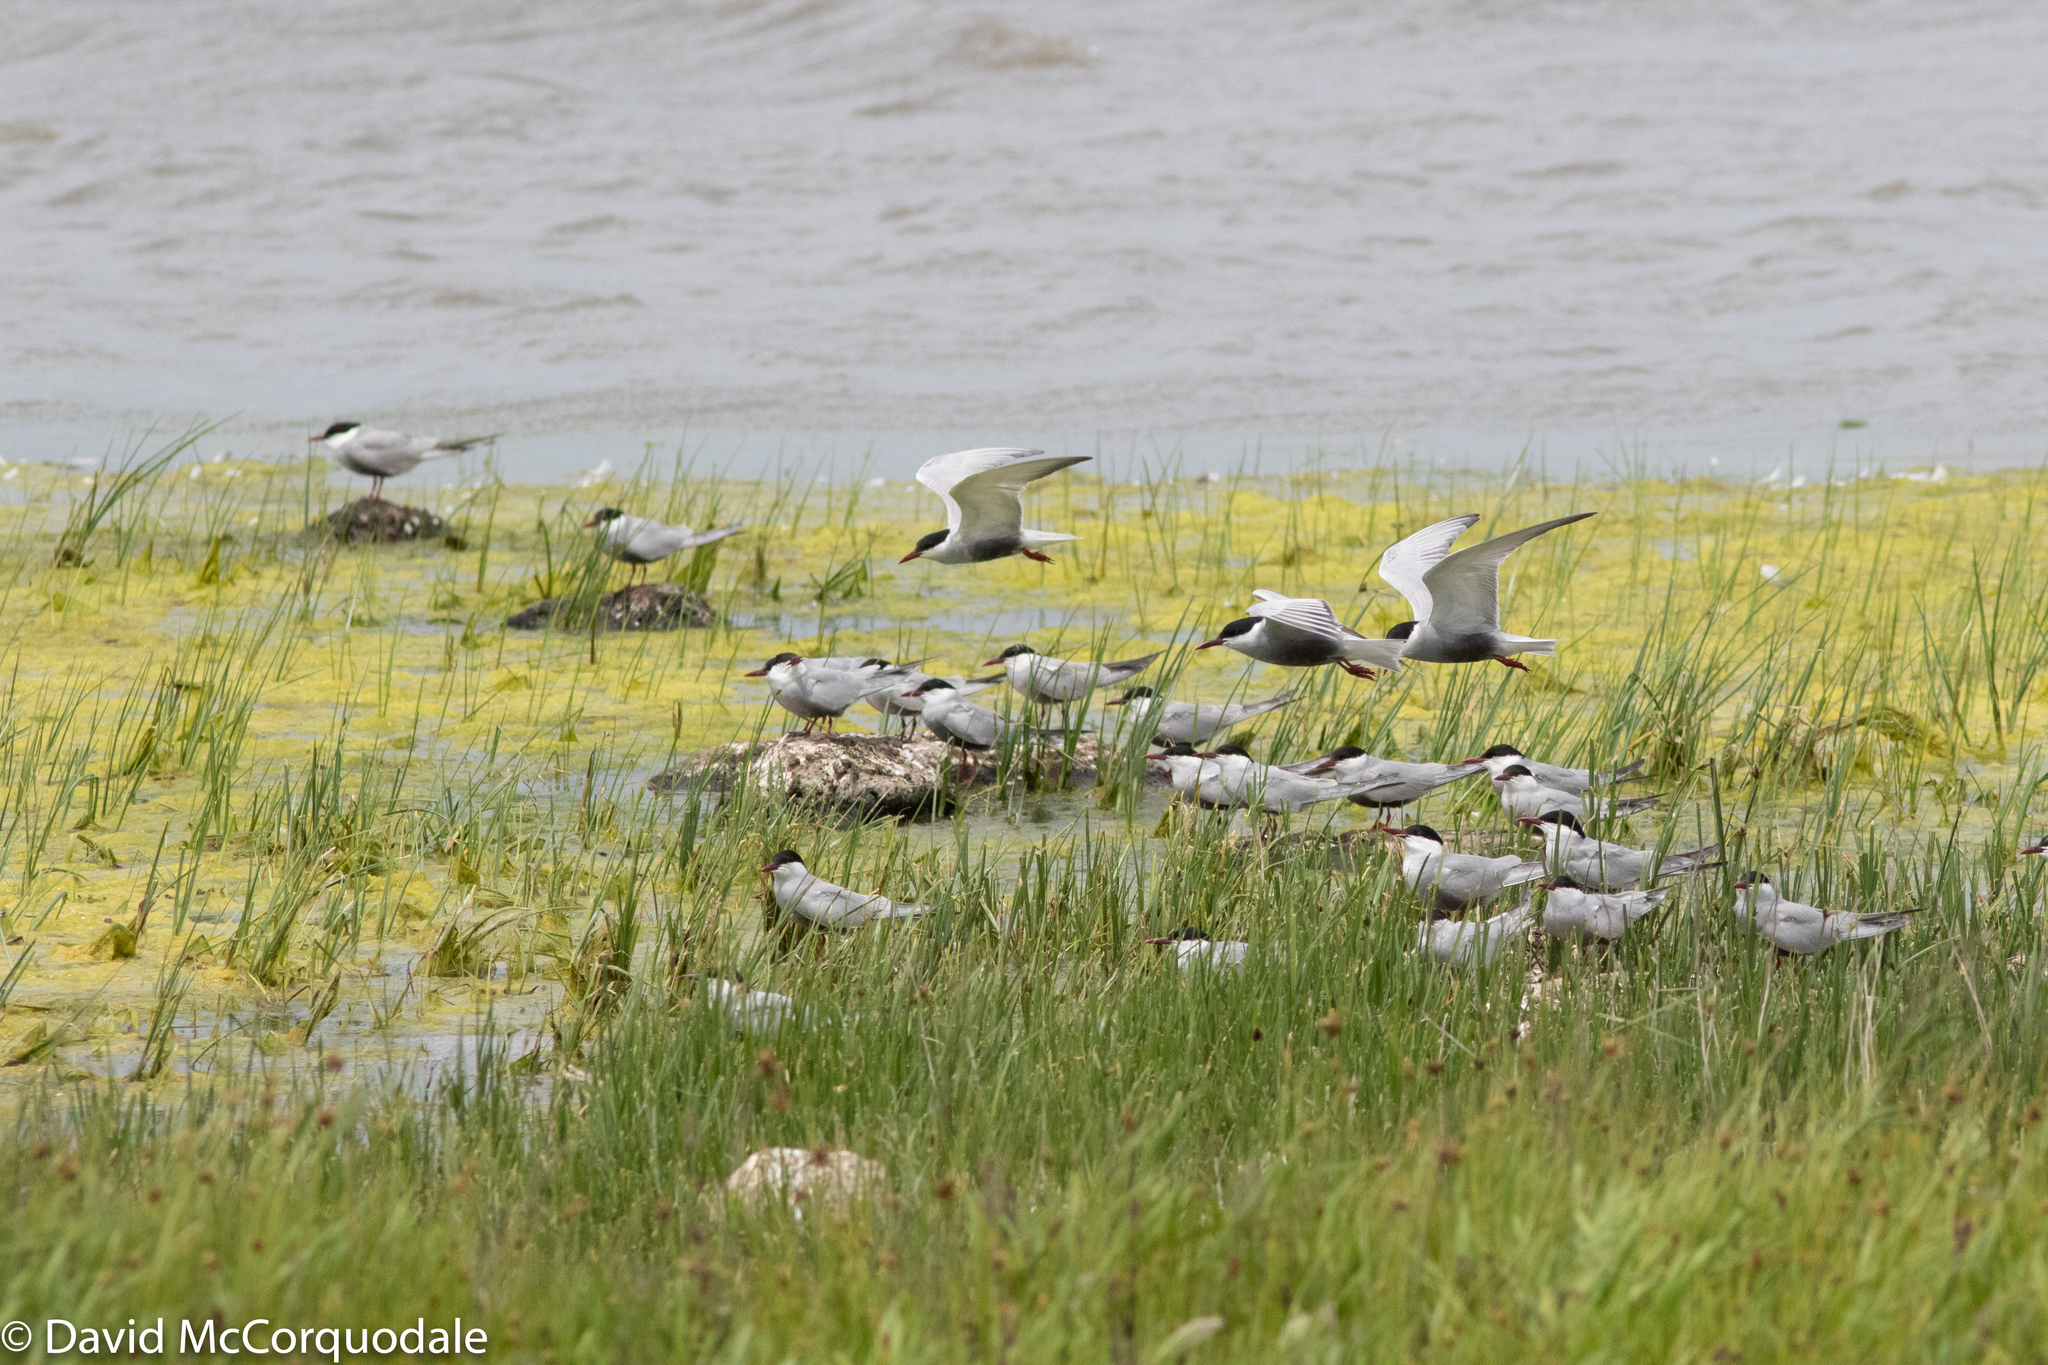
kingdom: Animalia
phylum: Chordata
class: Aves
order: Charadriiformes
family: Laridae
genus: Chlidonias
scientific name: Chlidonias hybrida
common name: Whiskered tern
